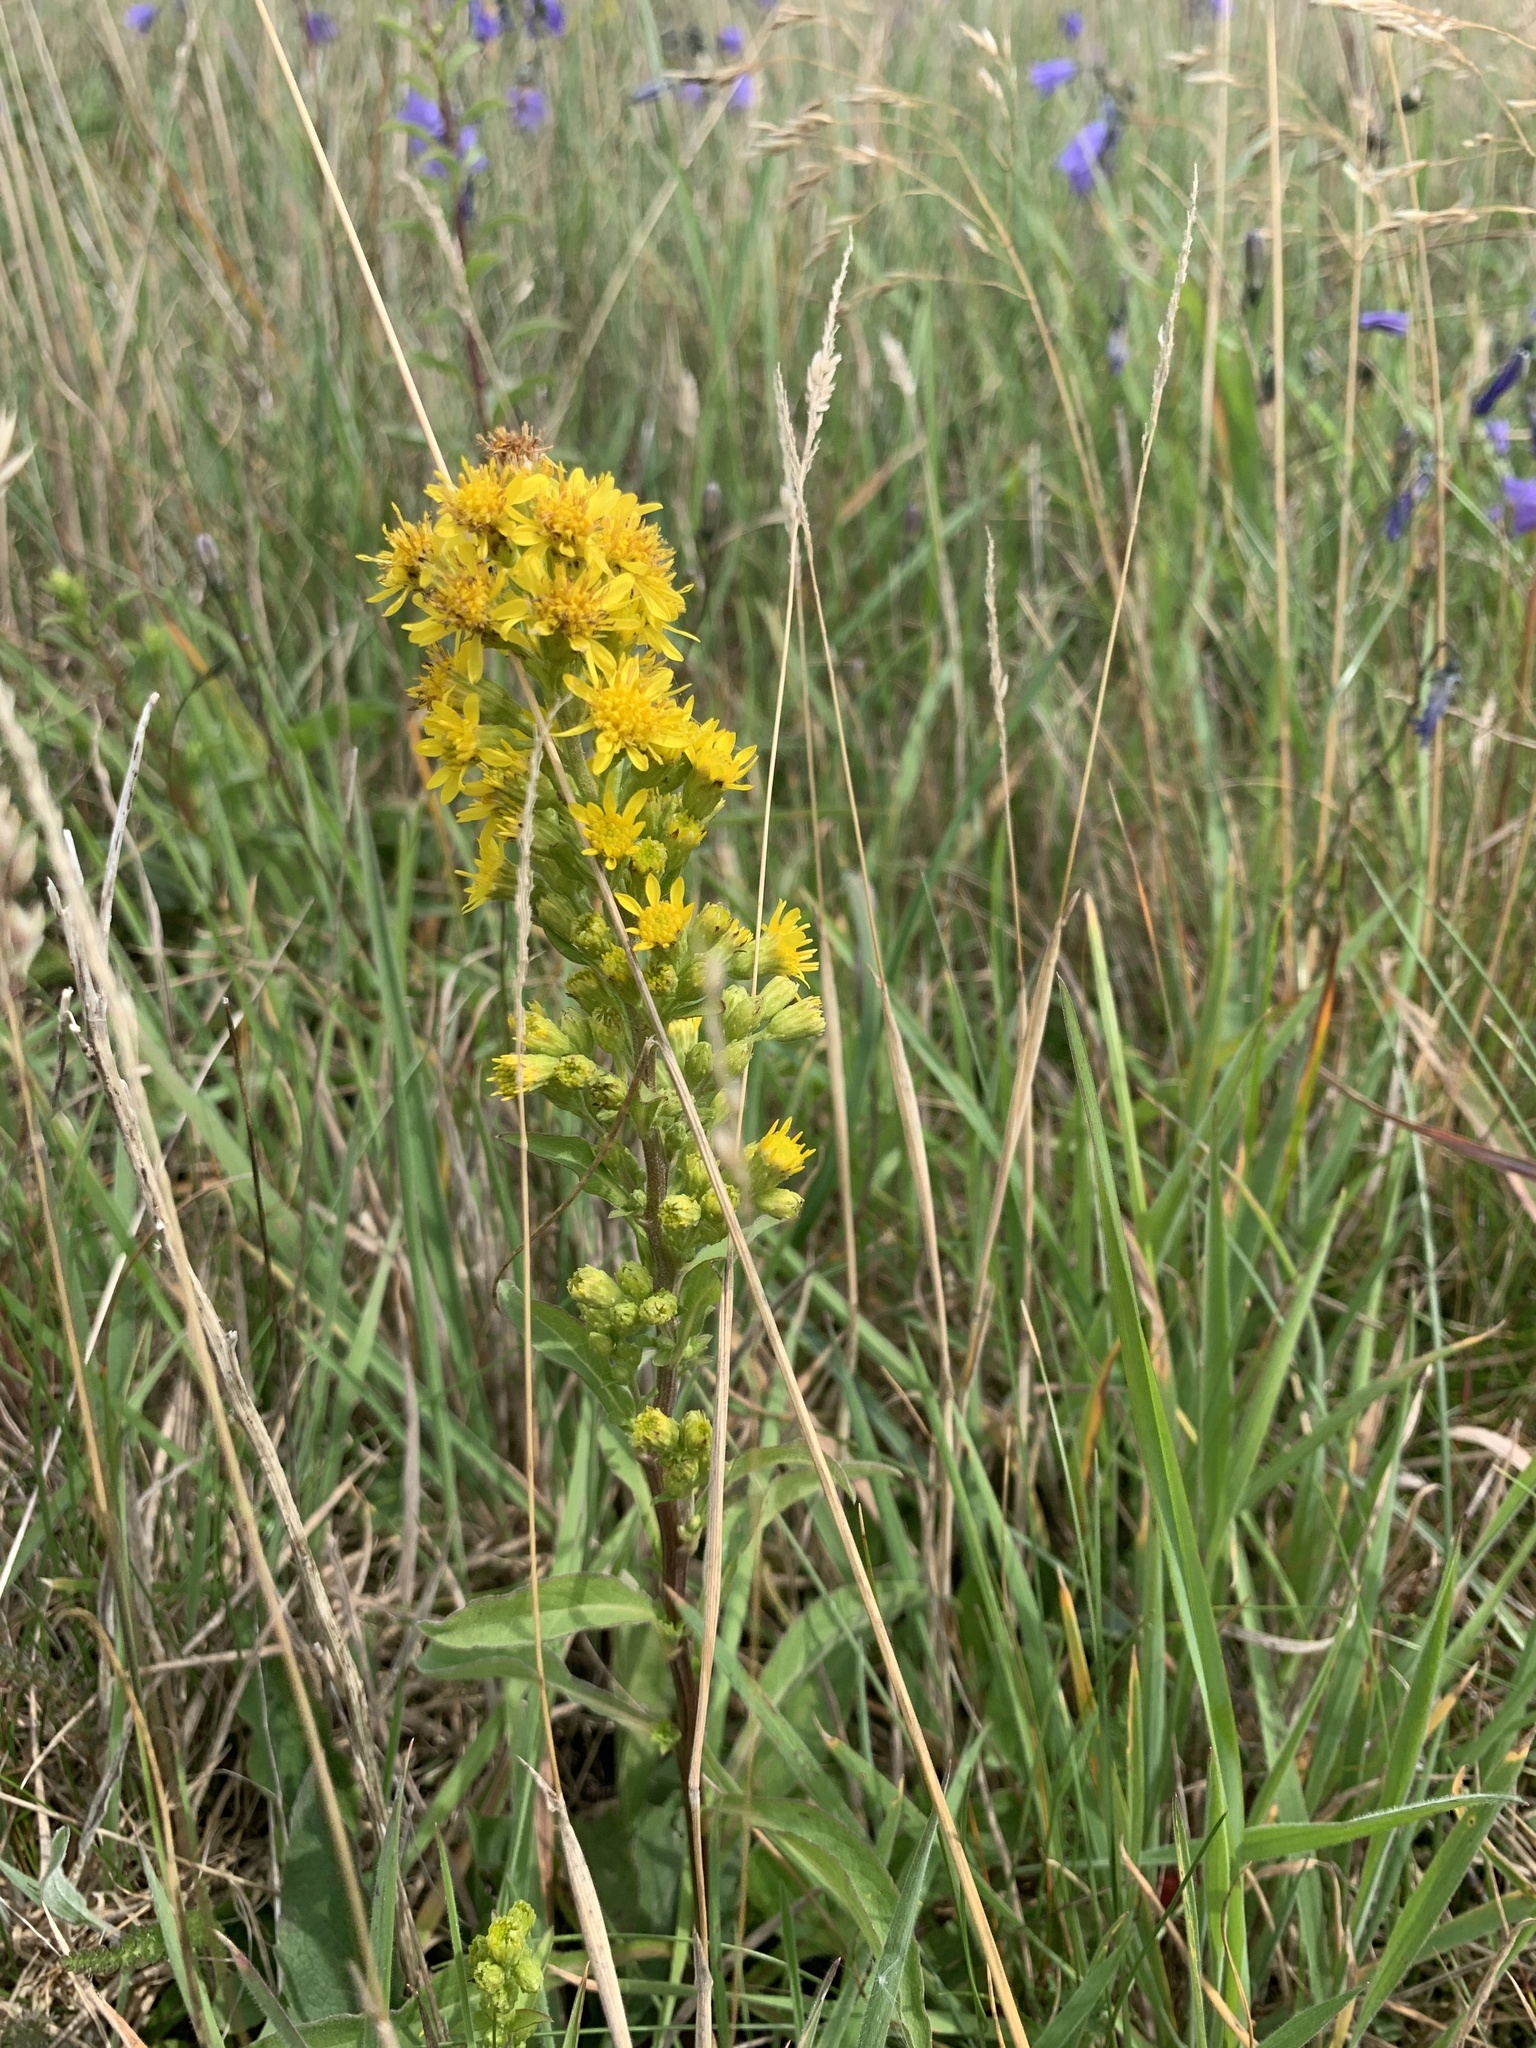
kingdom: Plantae
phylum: Tracheophyta
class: Magnoliopsida
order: Asterales
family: Asteraceae
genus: Solidago
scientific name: Solidago virgaurea
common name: Goldenrod
